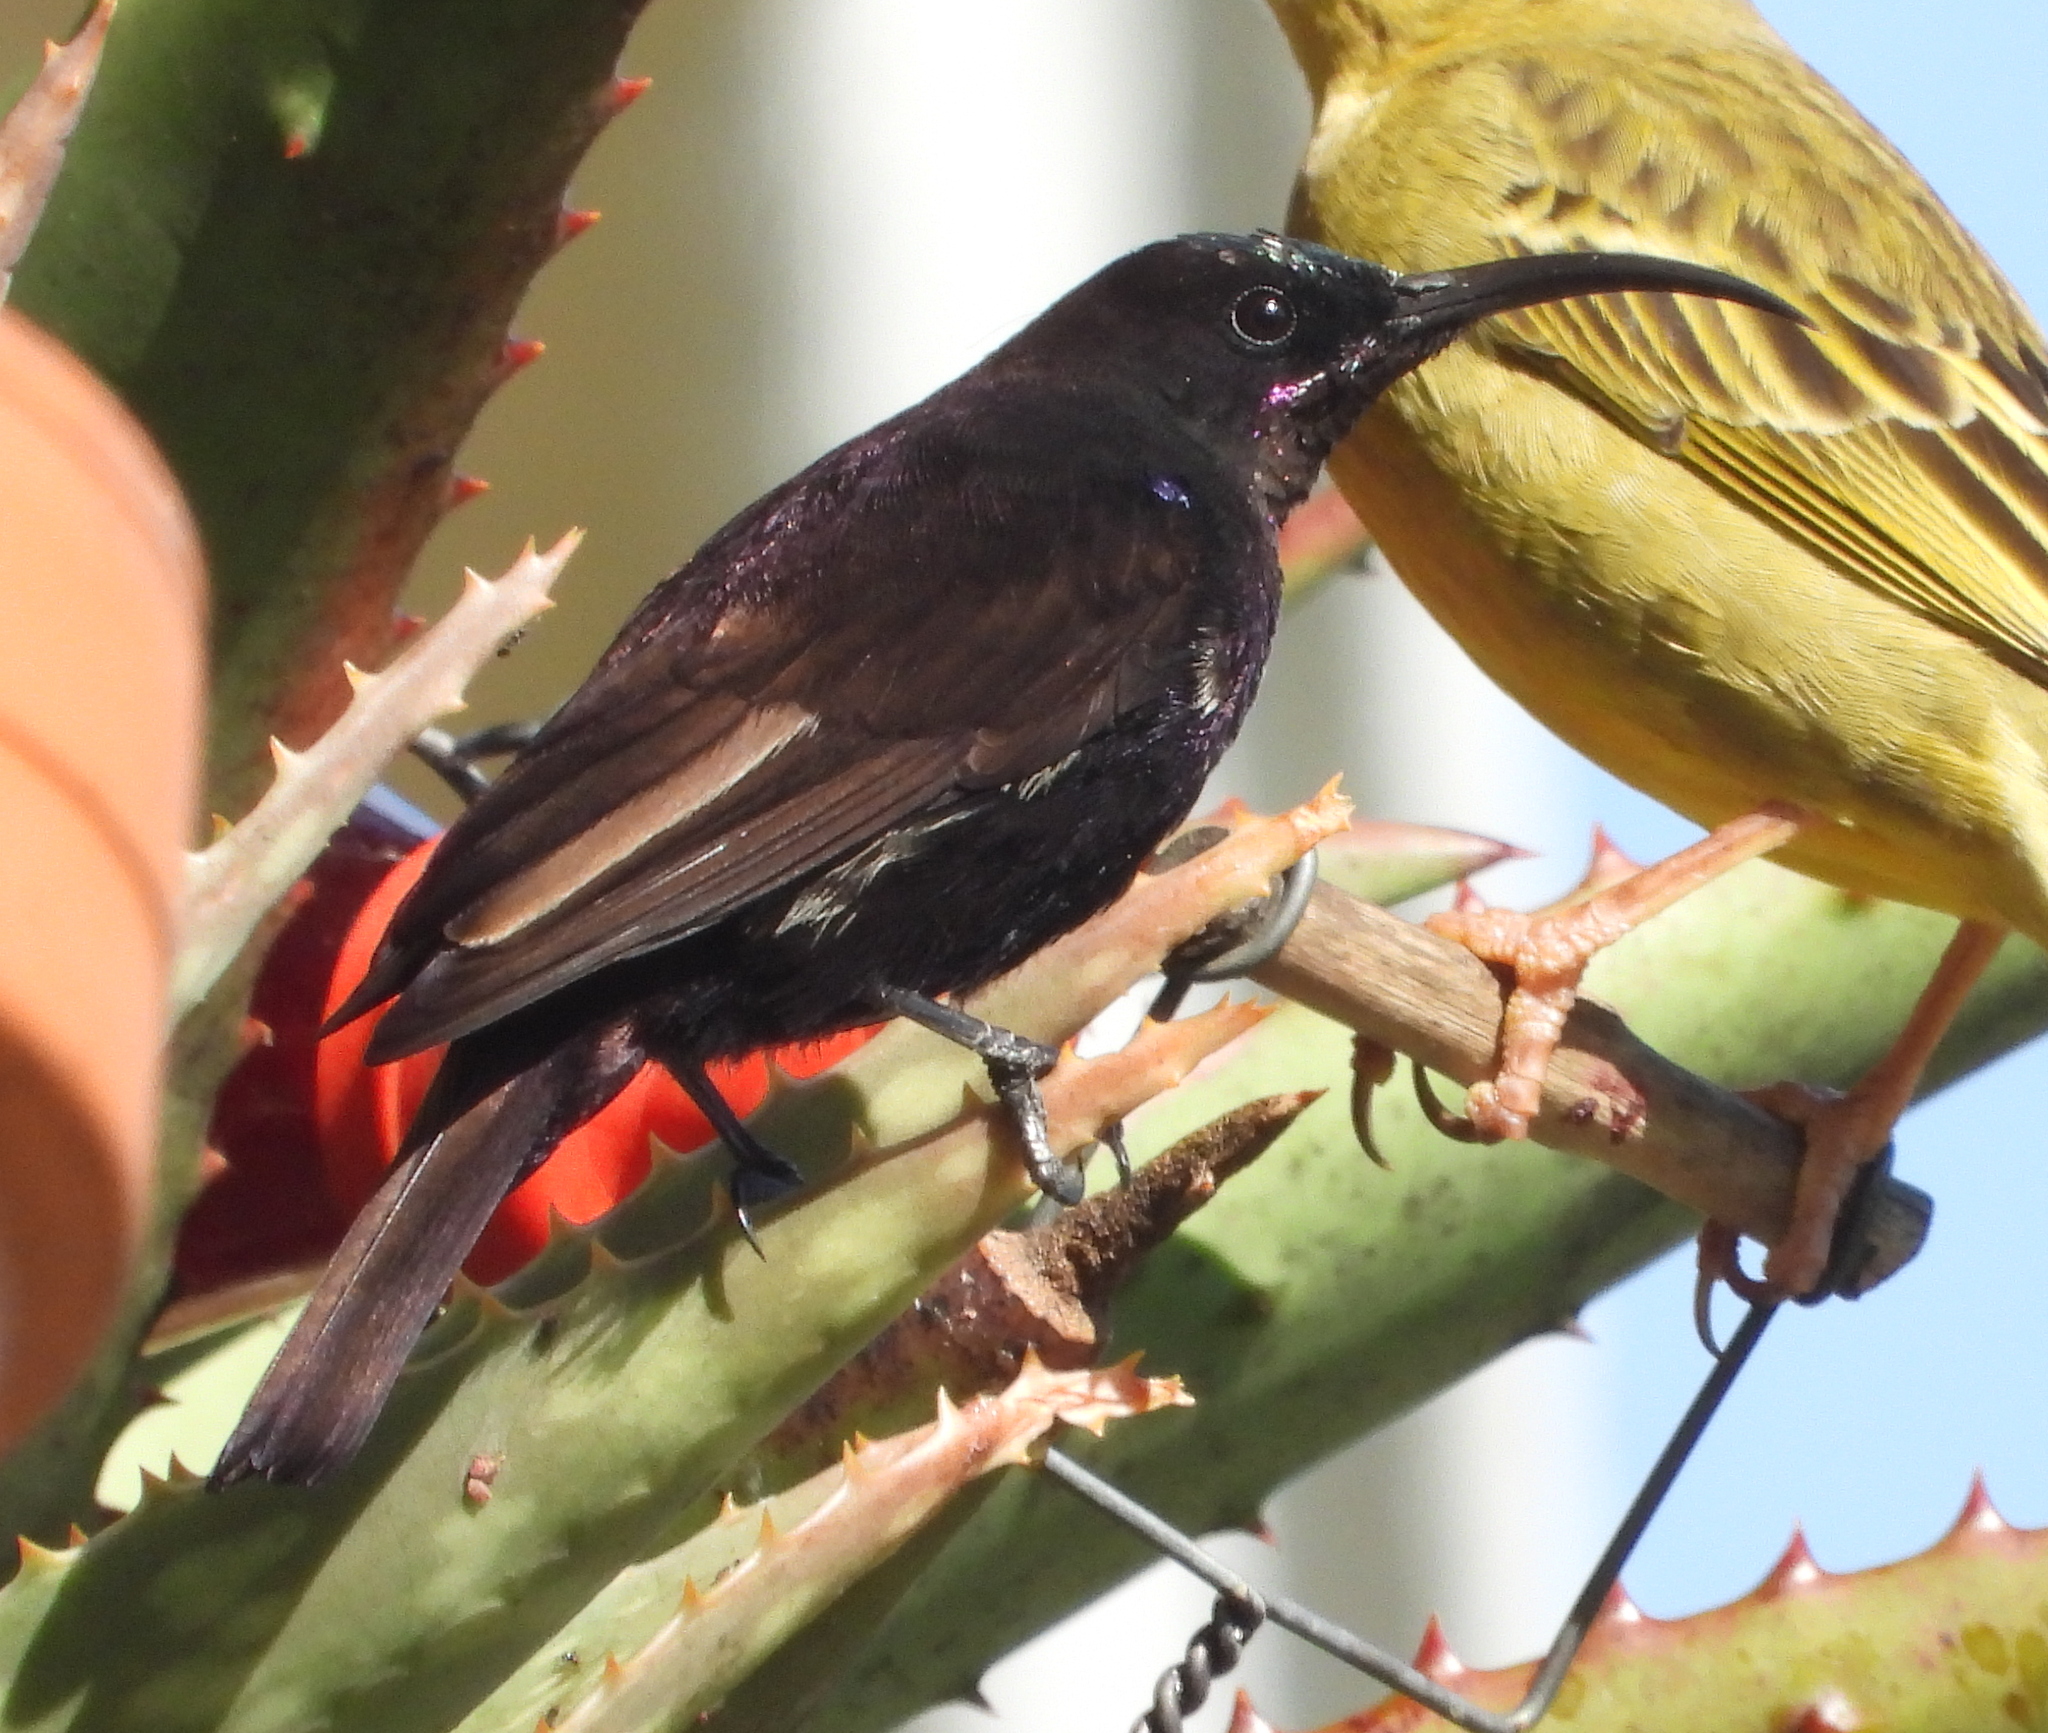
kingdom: Animalia
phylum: Chordata
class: Aves
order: Passeriformes
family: Nectariniidae
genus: Chalcomitra
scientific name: Chalcomitra amethystina
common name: Amethyst sunbird
